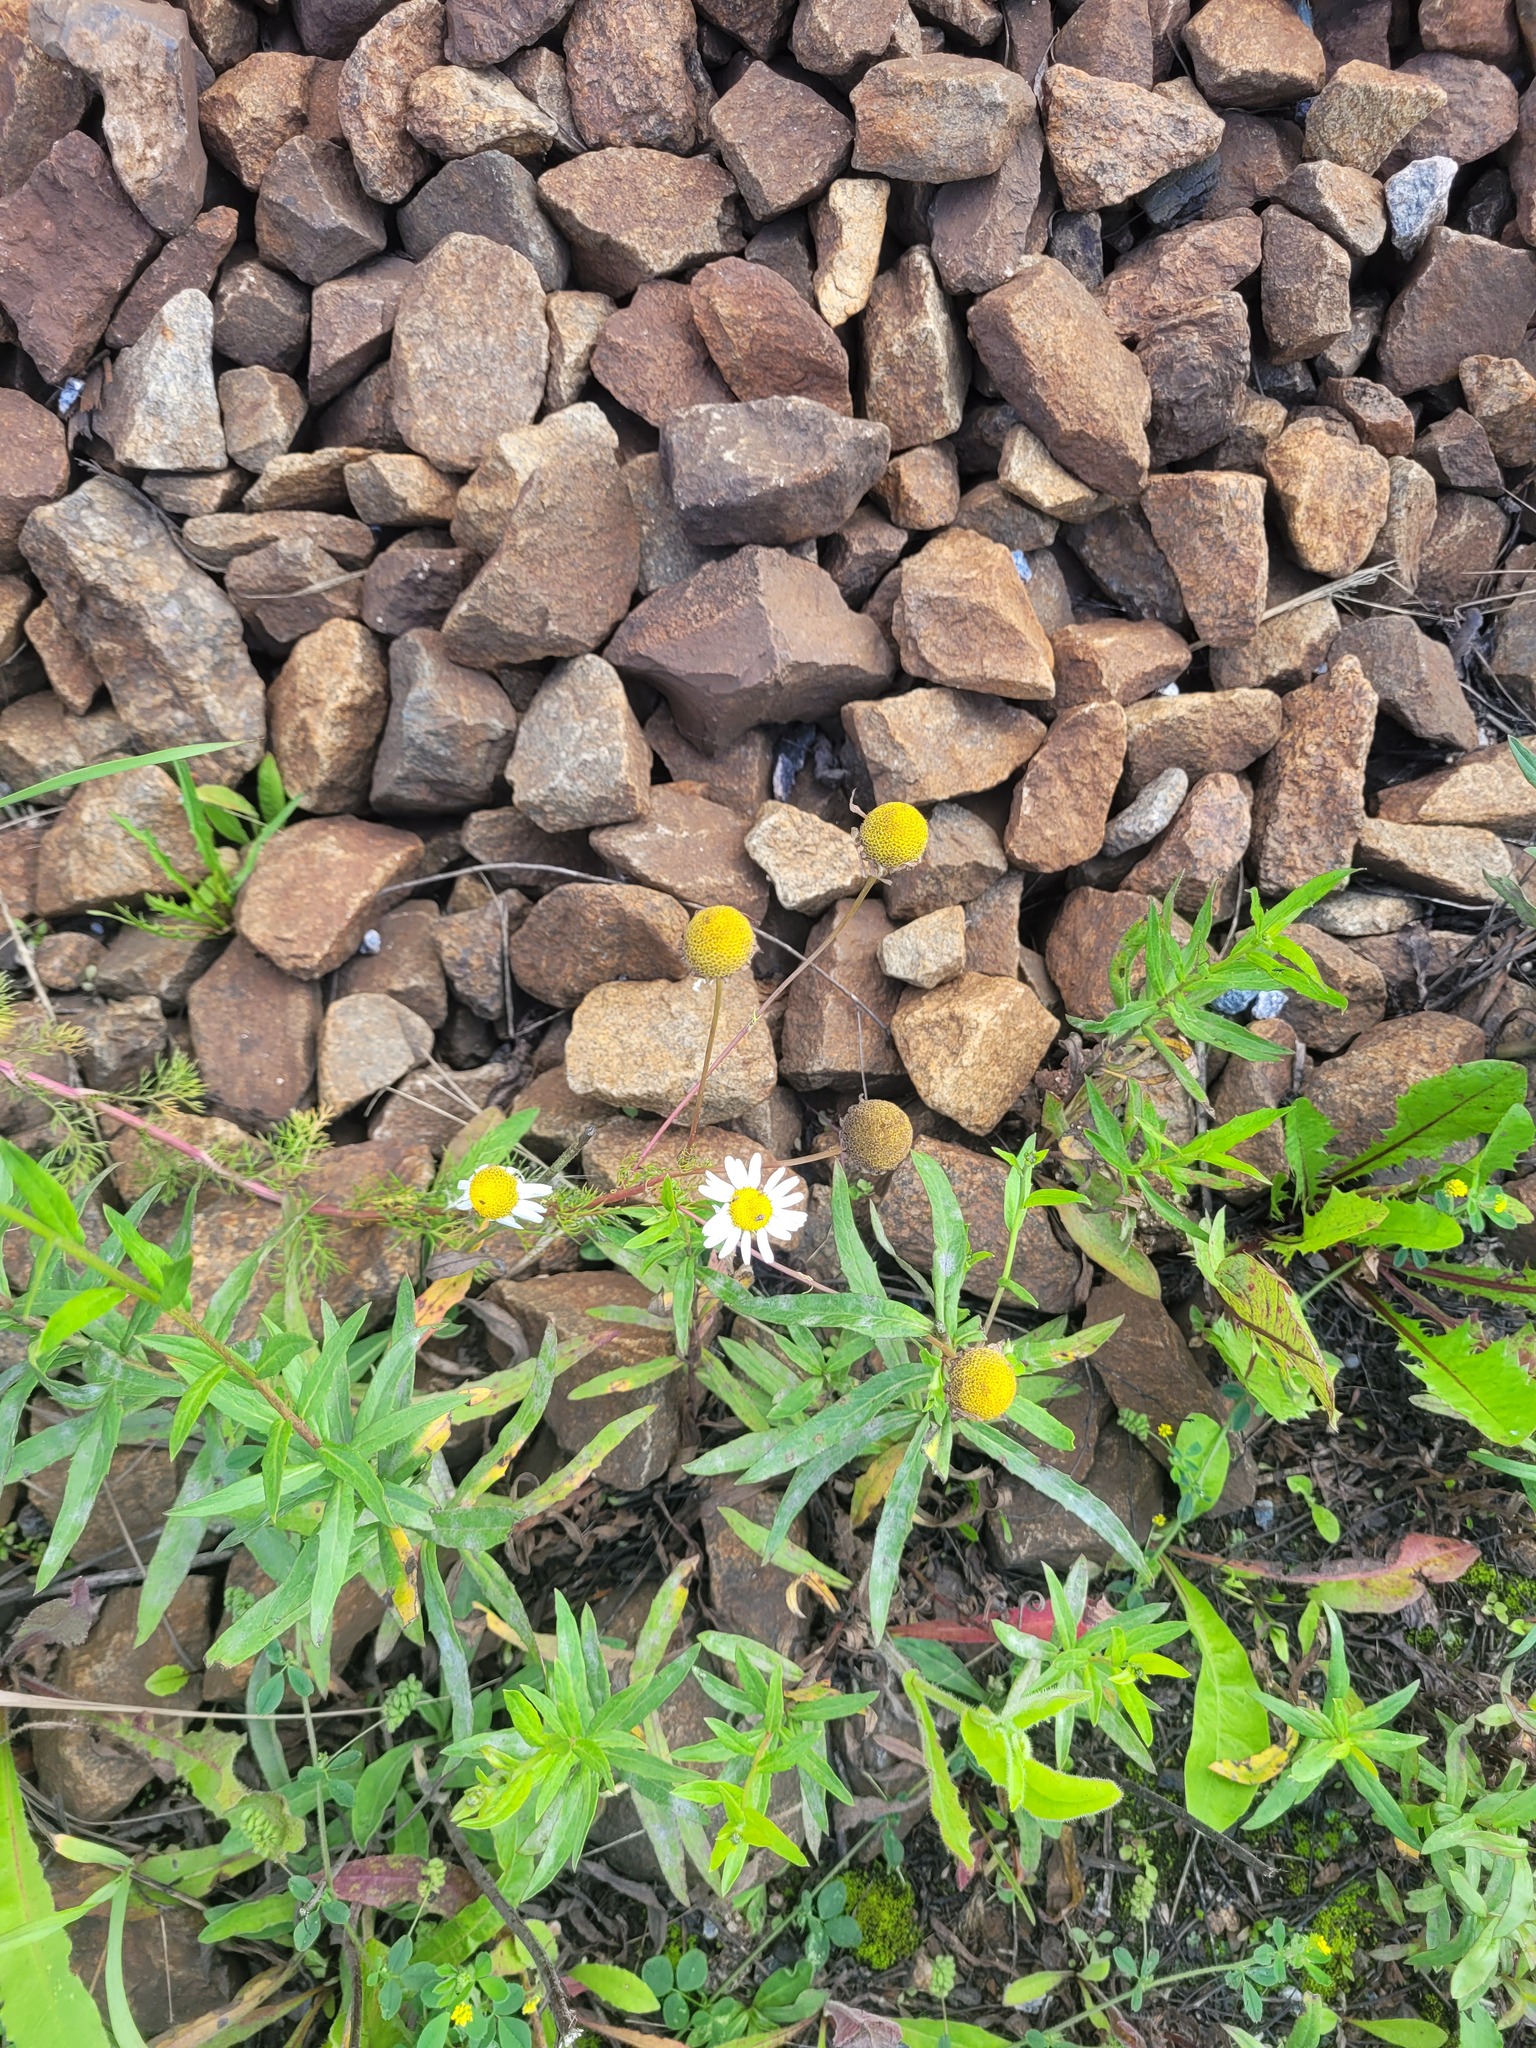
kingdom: Plantae
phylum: Tracheophyta
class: Magnoliopsida
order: Asterales
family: Asteraceae
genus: Tripleurospermum
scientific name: Tripleurospermum inodorum
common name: Scentless mayweed
